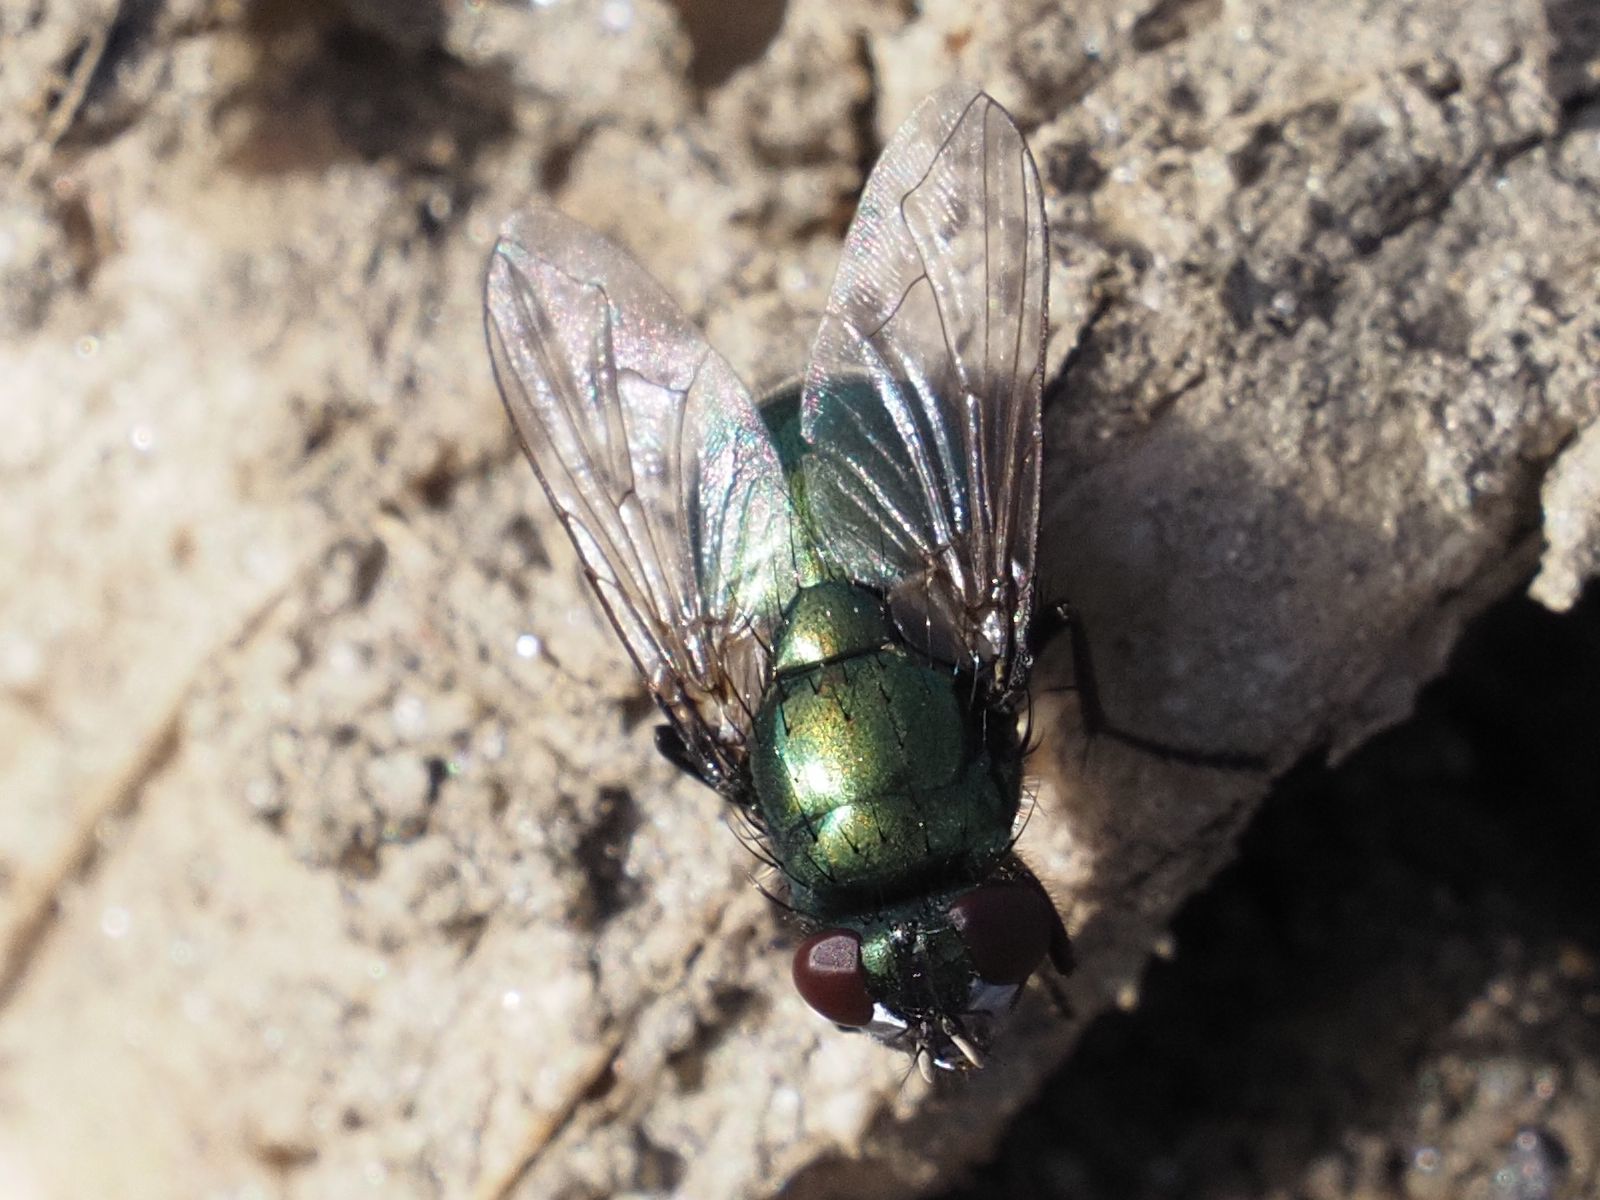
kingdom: Animalia
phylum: Arthropoda
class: Insecta
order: Diptera
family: Muscidae
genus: Neomyia
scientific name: Neomyia cornicina
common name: House fly
